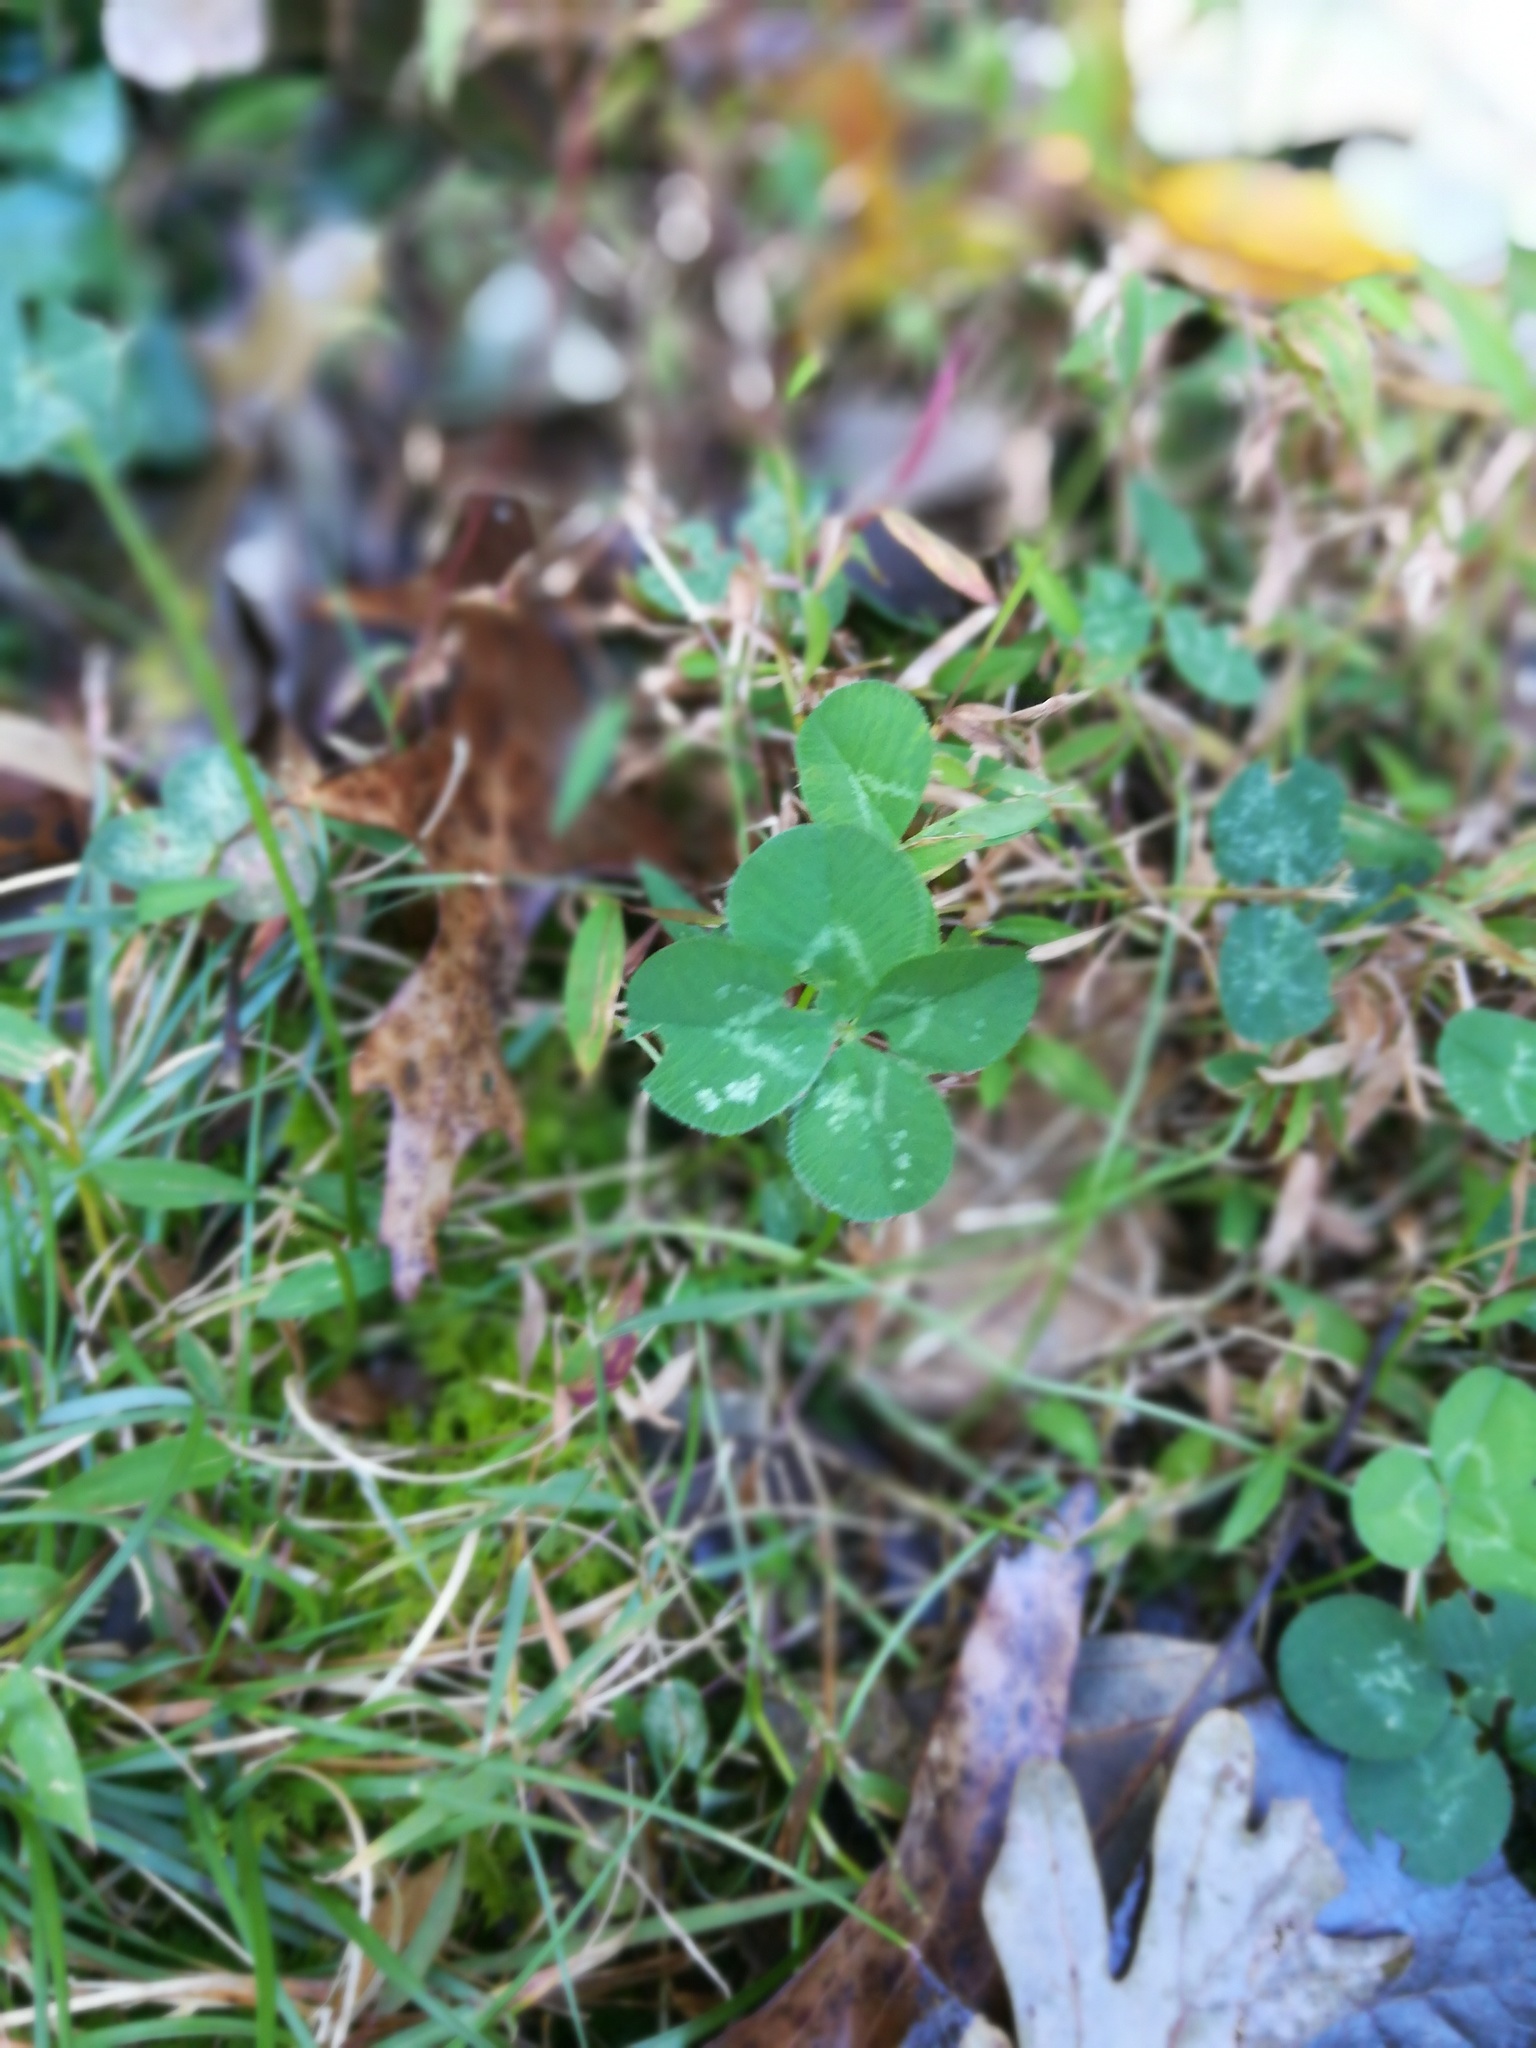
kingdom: Plantae
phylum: Tracheophyta
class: Magnoliopsida
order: Fabales
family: Fabaceae
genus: Trifolium
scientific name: Trifolium repens
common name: White clover
